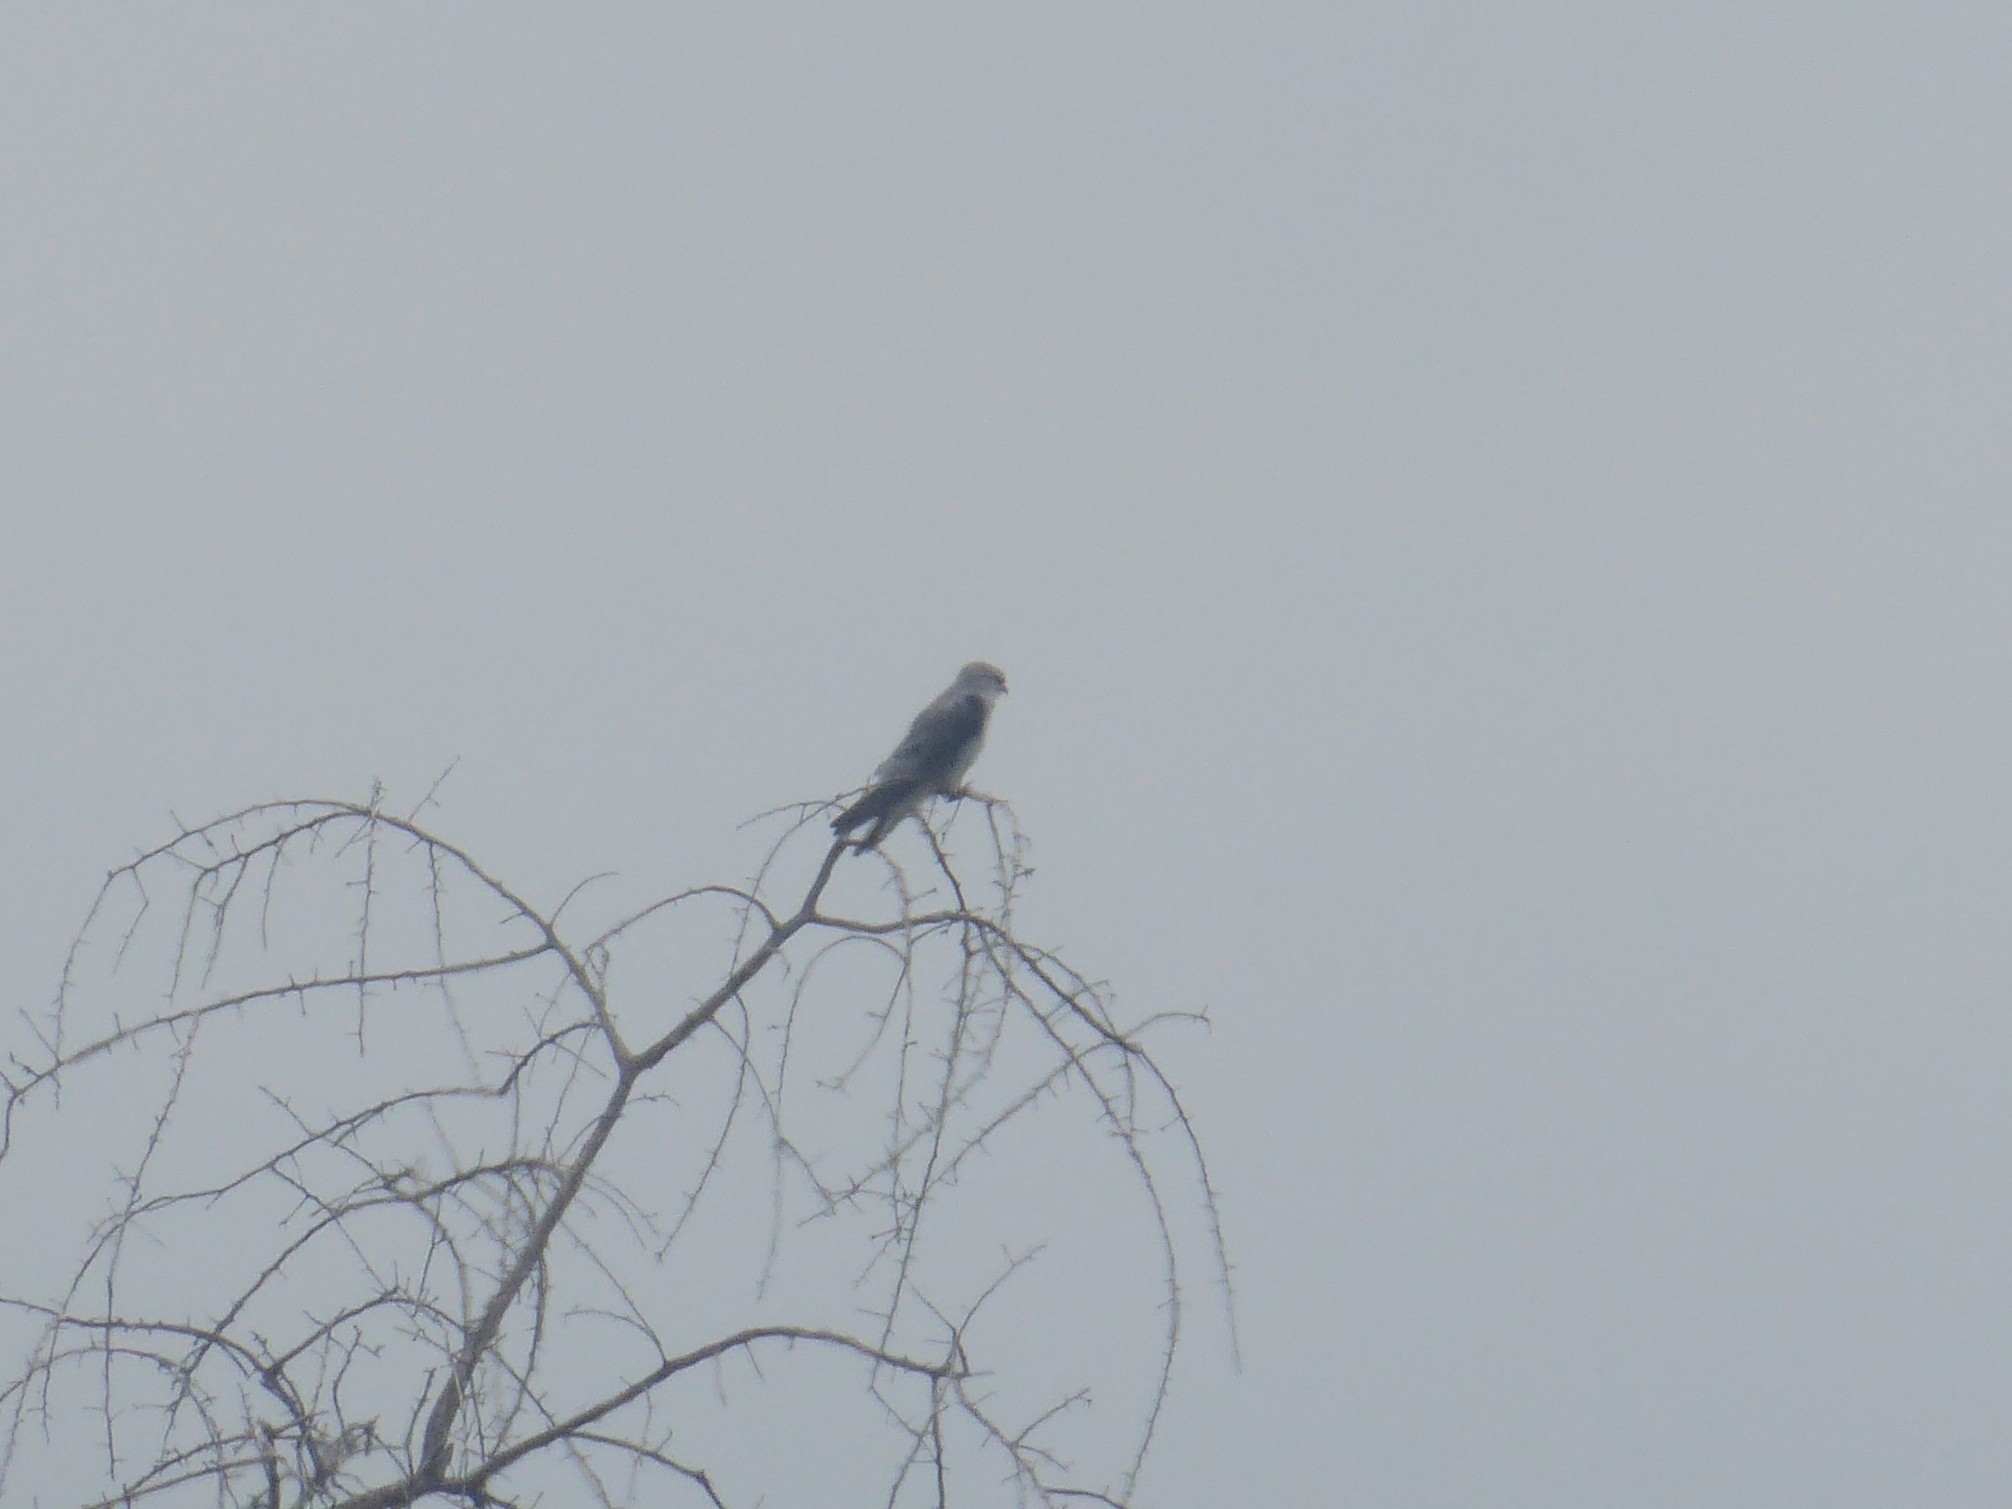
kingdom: Animalia
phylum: Chordata
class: Aves
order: Accipitriformes
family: Accipitridae
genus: Elanus
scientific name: Elanus caeruleus
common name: Black-winged kite
